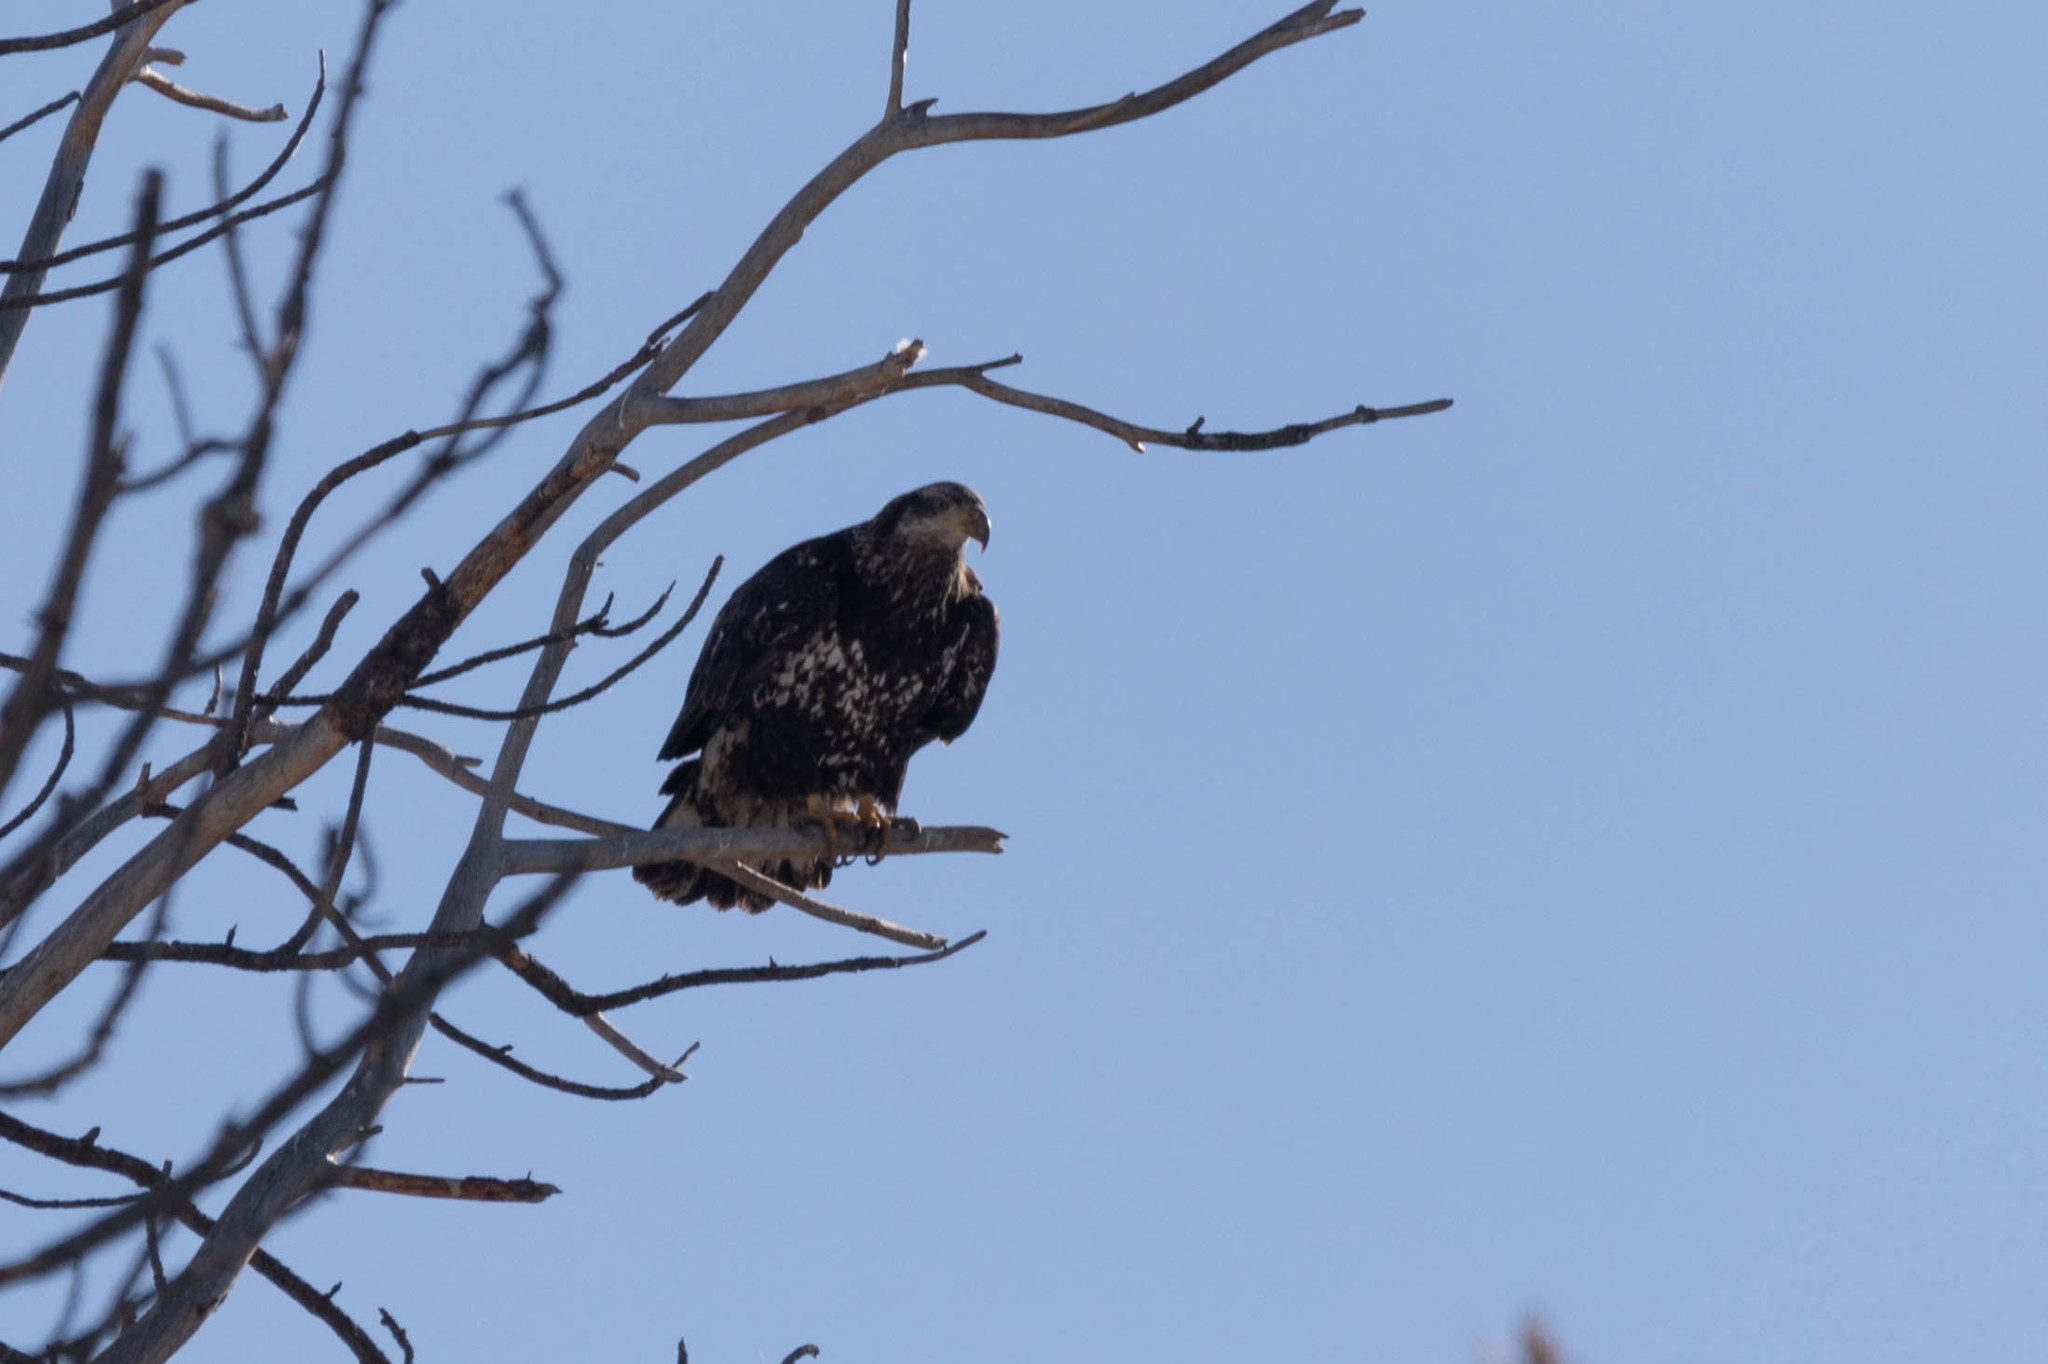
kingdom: Animalia
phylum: Chordata
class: Aves
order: Accipitriformes
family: Accipitridae
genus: Haliaeetus
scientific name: Haliaeetus leucocephalus
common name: Bald eagle
